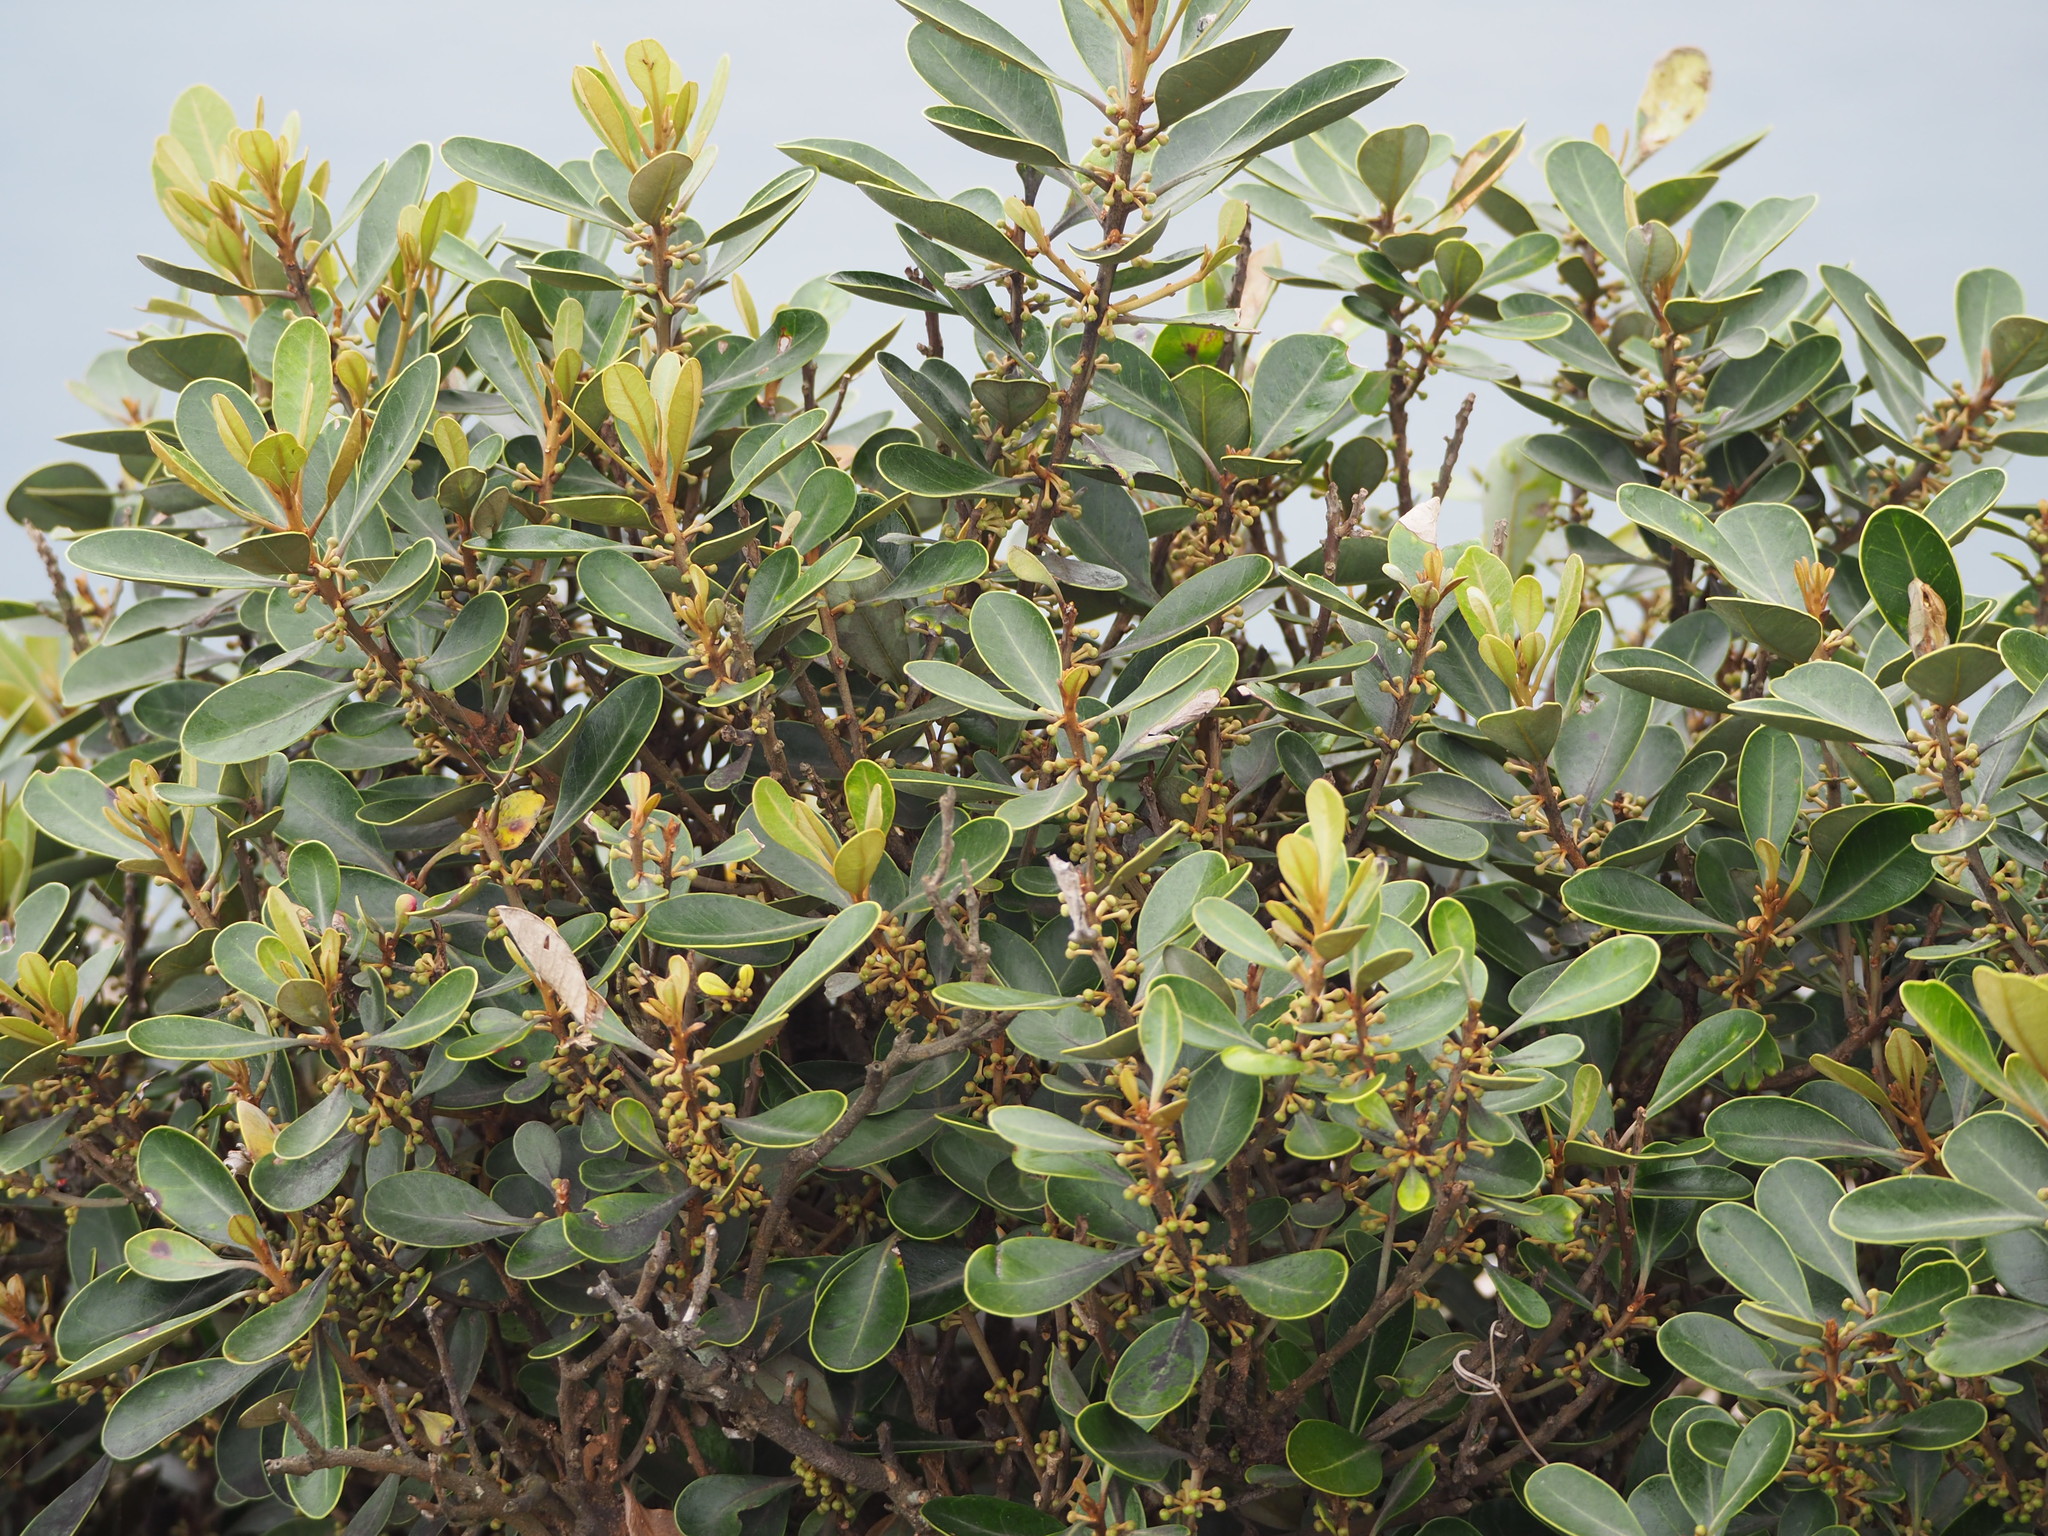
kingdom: Plantae
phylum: Tracheophyta
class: Magnoliopsida
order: Ericales
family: Sapotaceae
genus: Planchonella
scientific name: Planchonella obovata
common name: Black-ash
